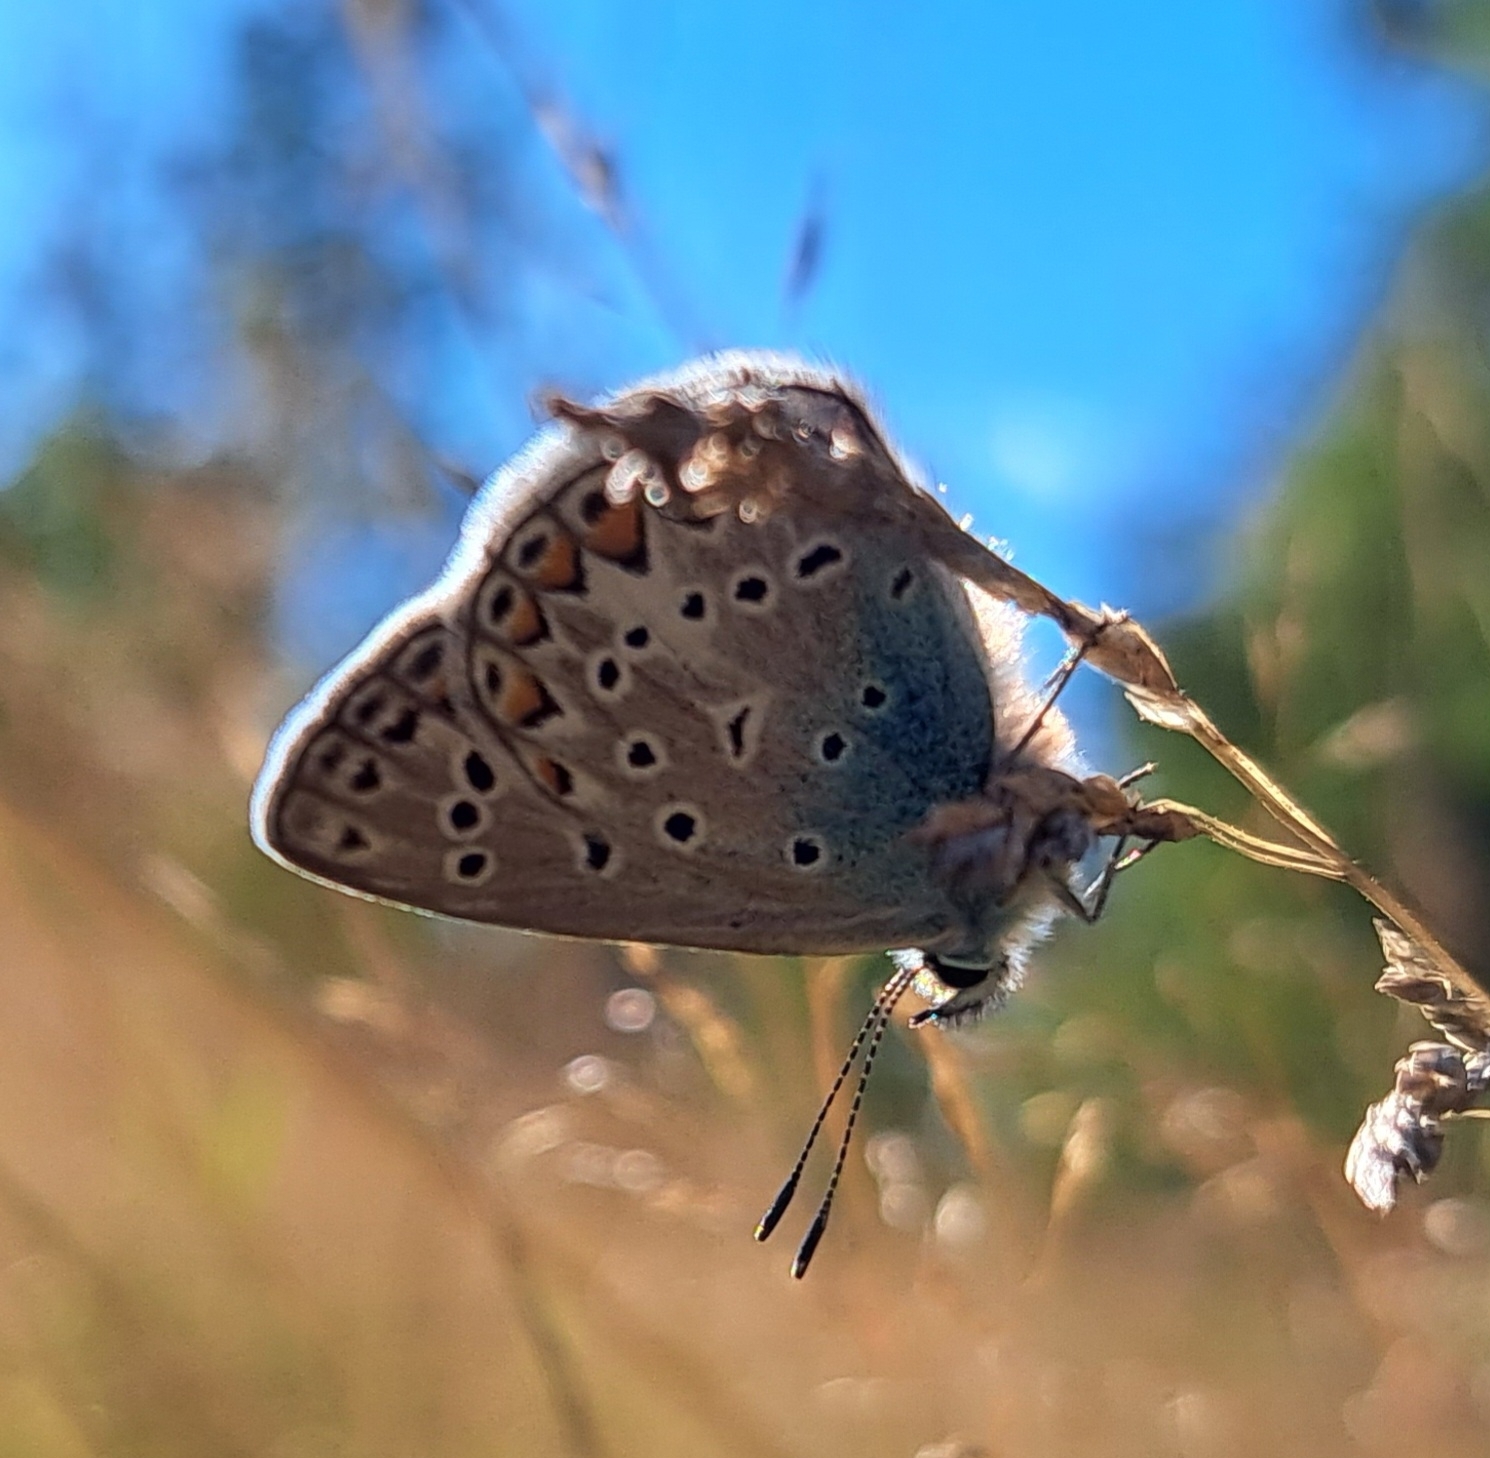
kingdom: Animalia
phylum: Arthropoda
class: Insecta
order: Lepidoptera
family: Lycaenidae
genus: Polyommatus
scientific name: Polyommatus icarus
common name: Common blue
